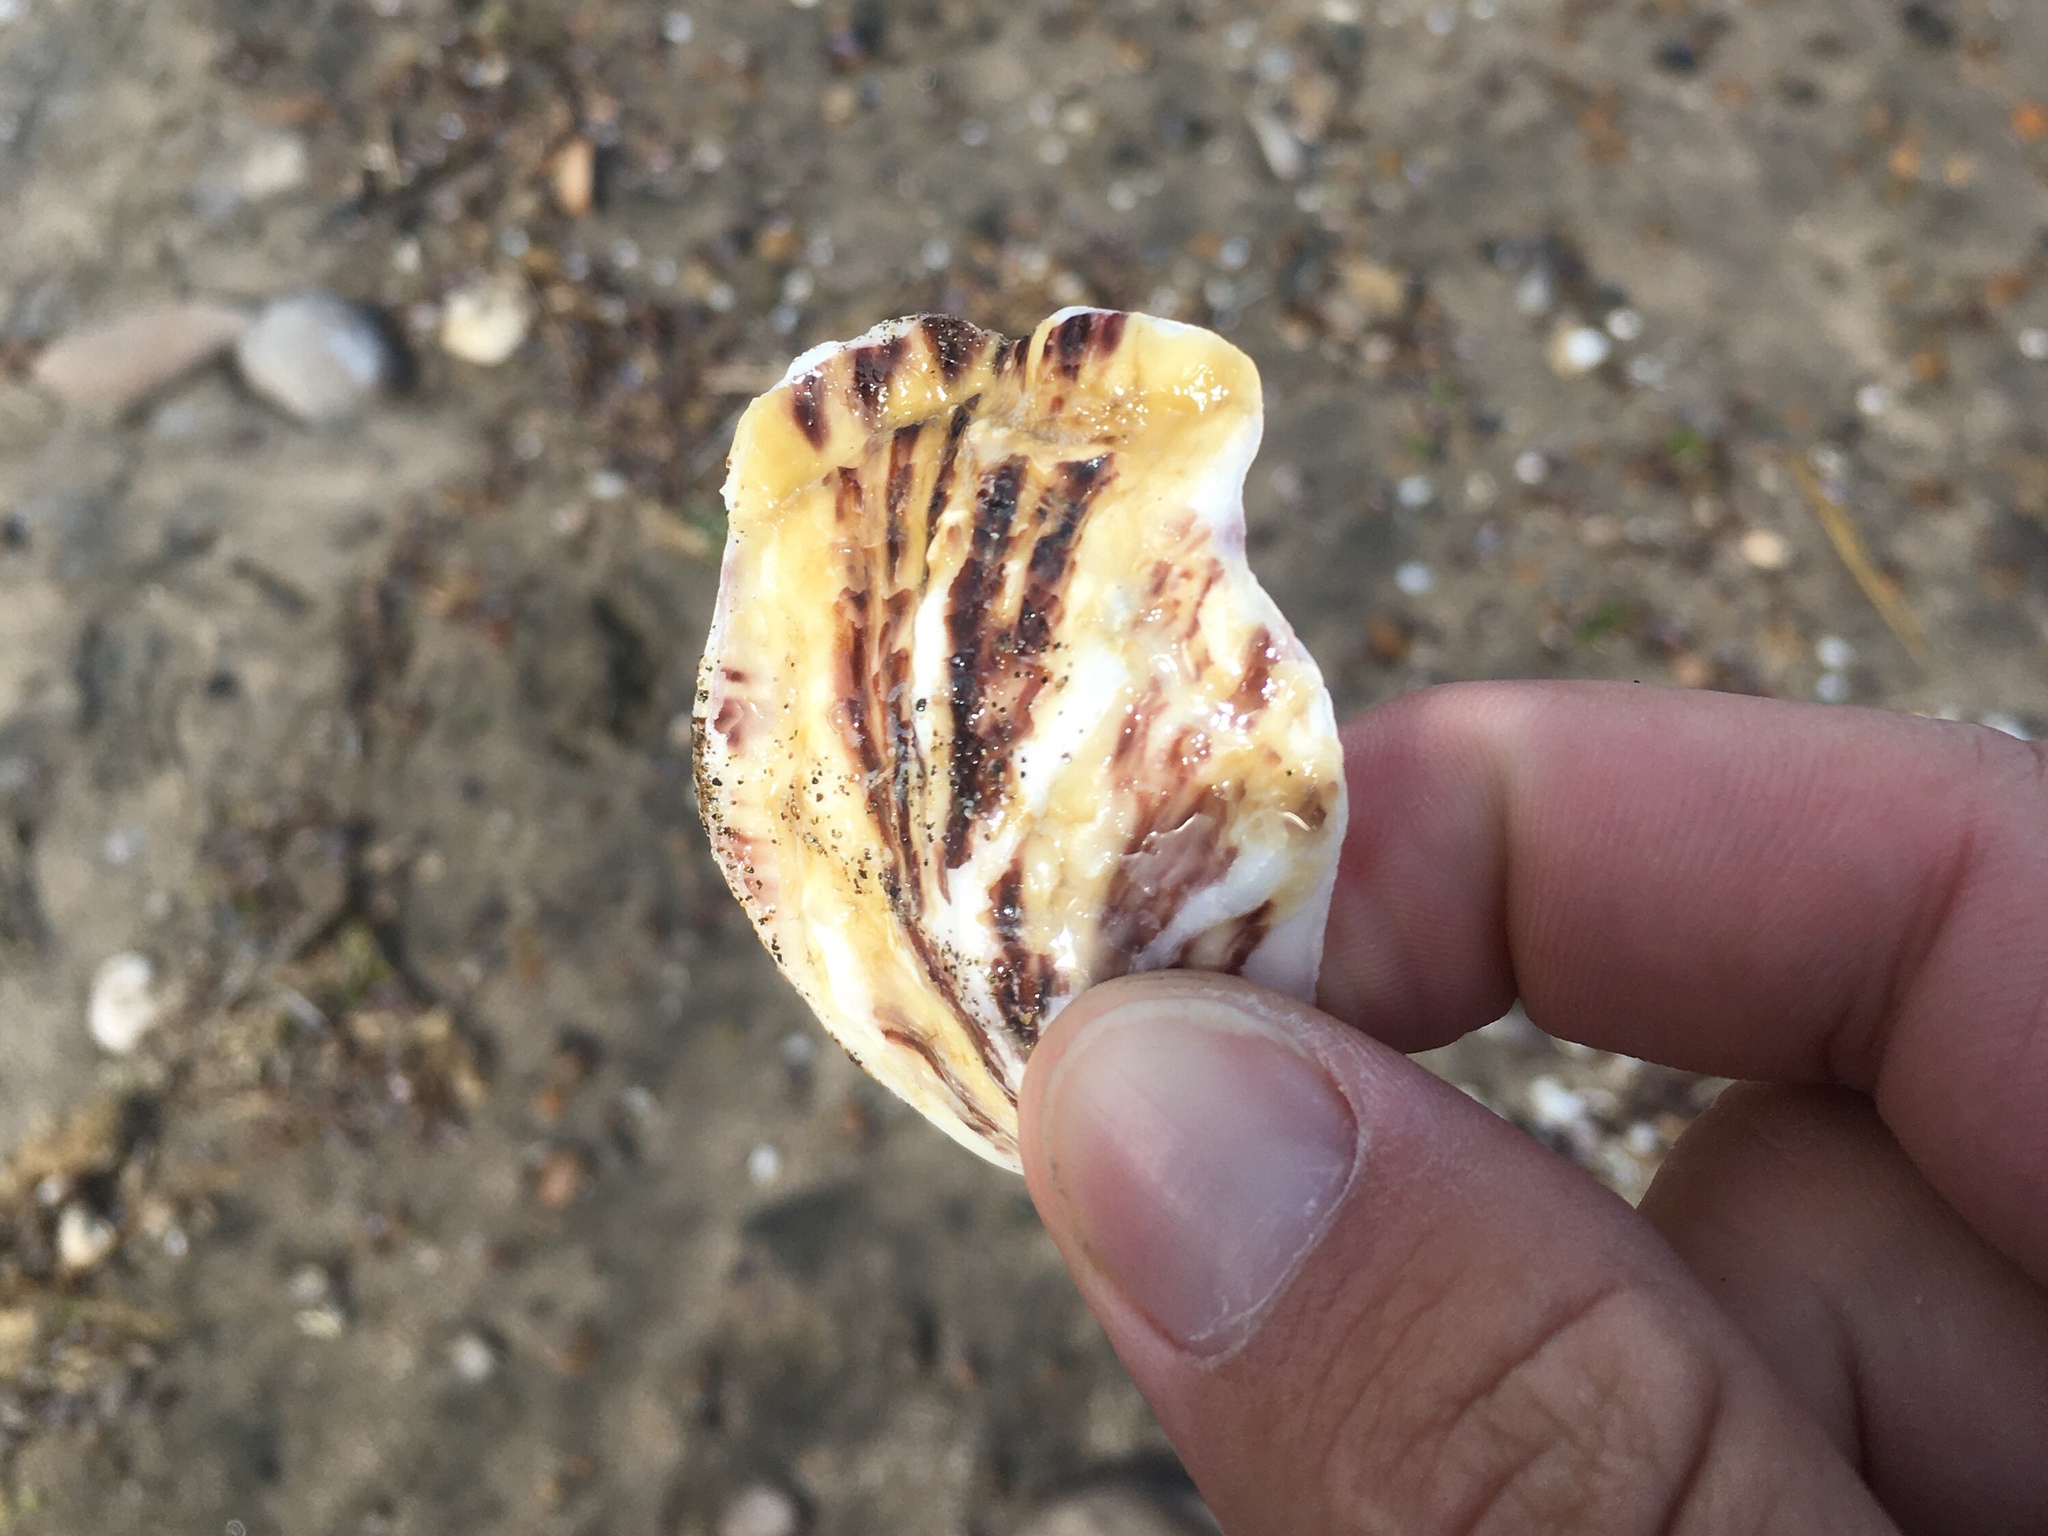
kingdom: Animalia
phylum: Mollusca
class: Bivalvia
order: Ostreida
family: Ostreidae
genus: Magallana
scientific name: Magallana gigas
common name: Pacific oyster
